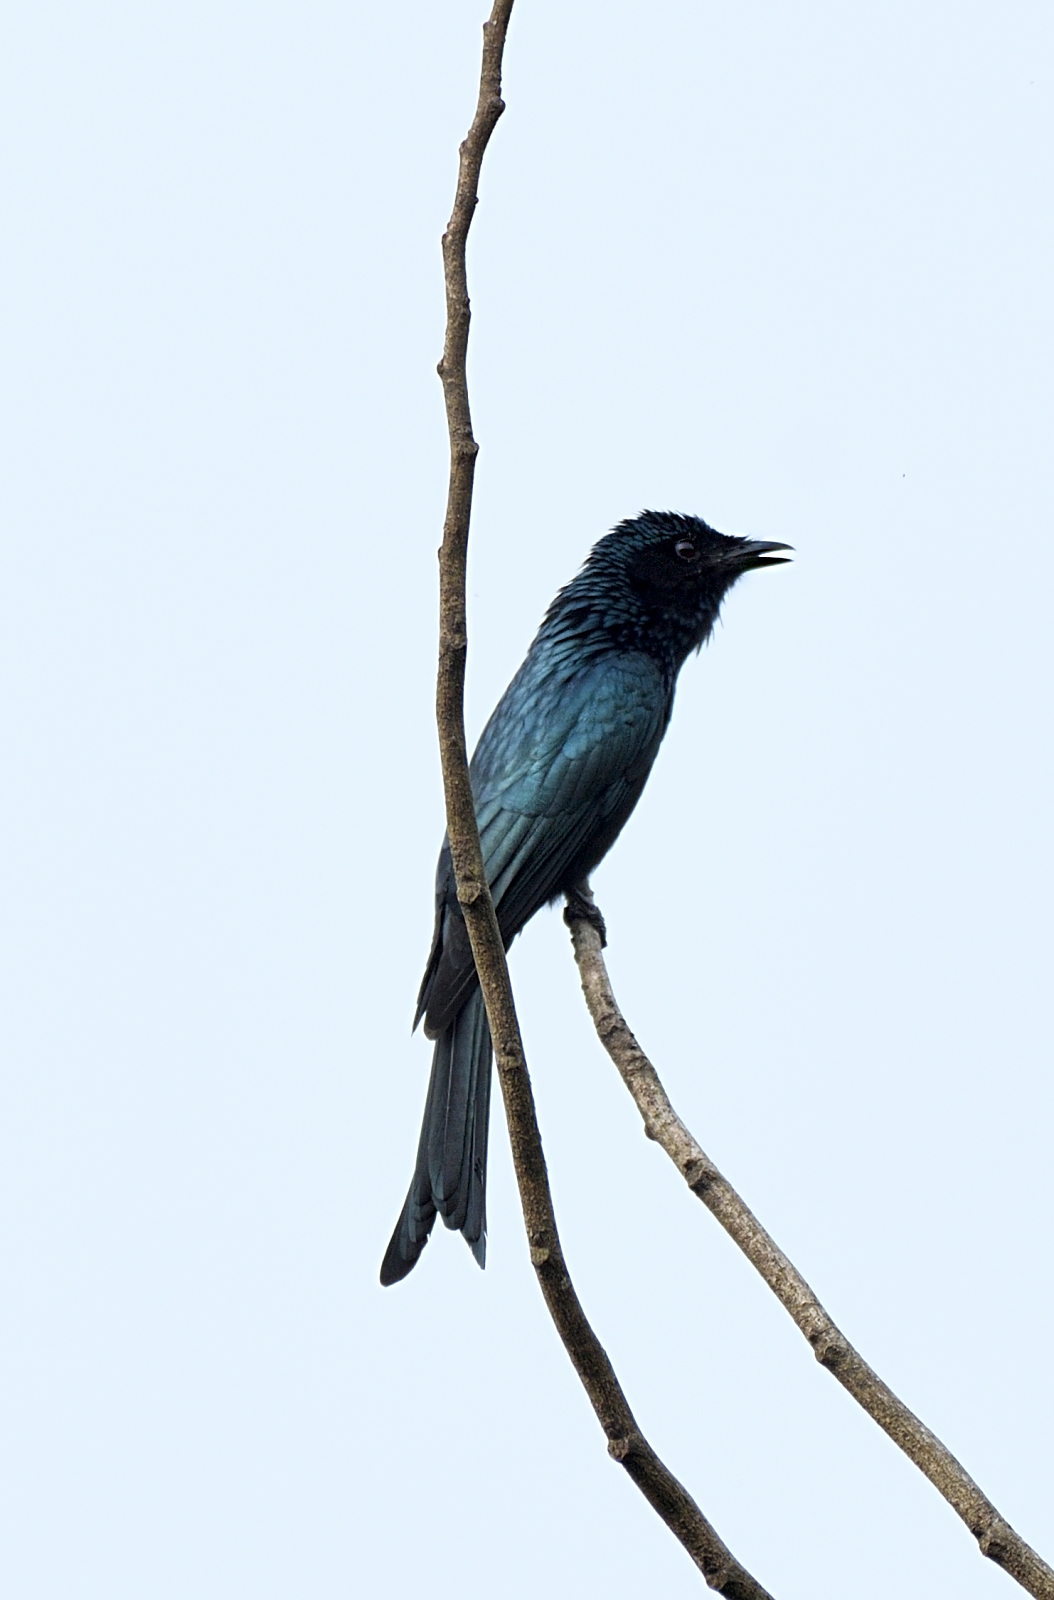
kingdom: Animalia
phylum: Chordata
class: Aves
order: Passeriformes
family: Dicruridae
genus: Dicrurus
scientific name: Dicrurus aeneus
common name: Bronzed drongo
